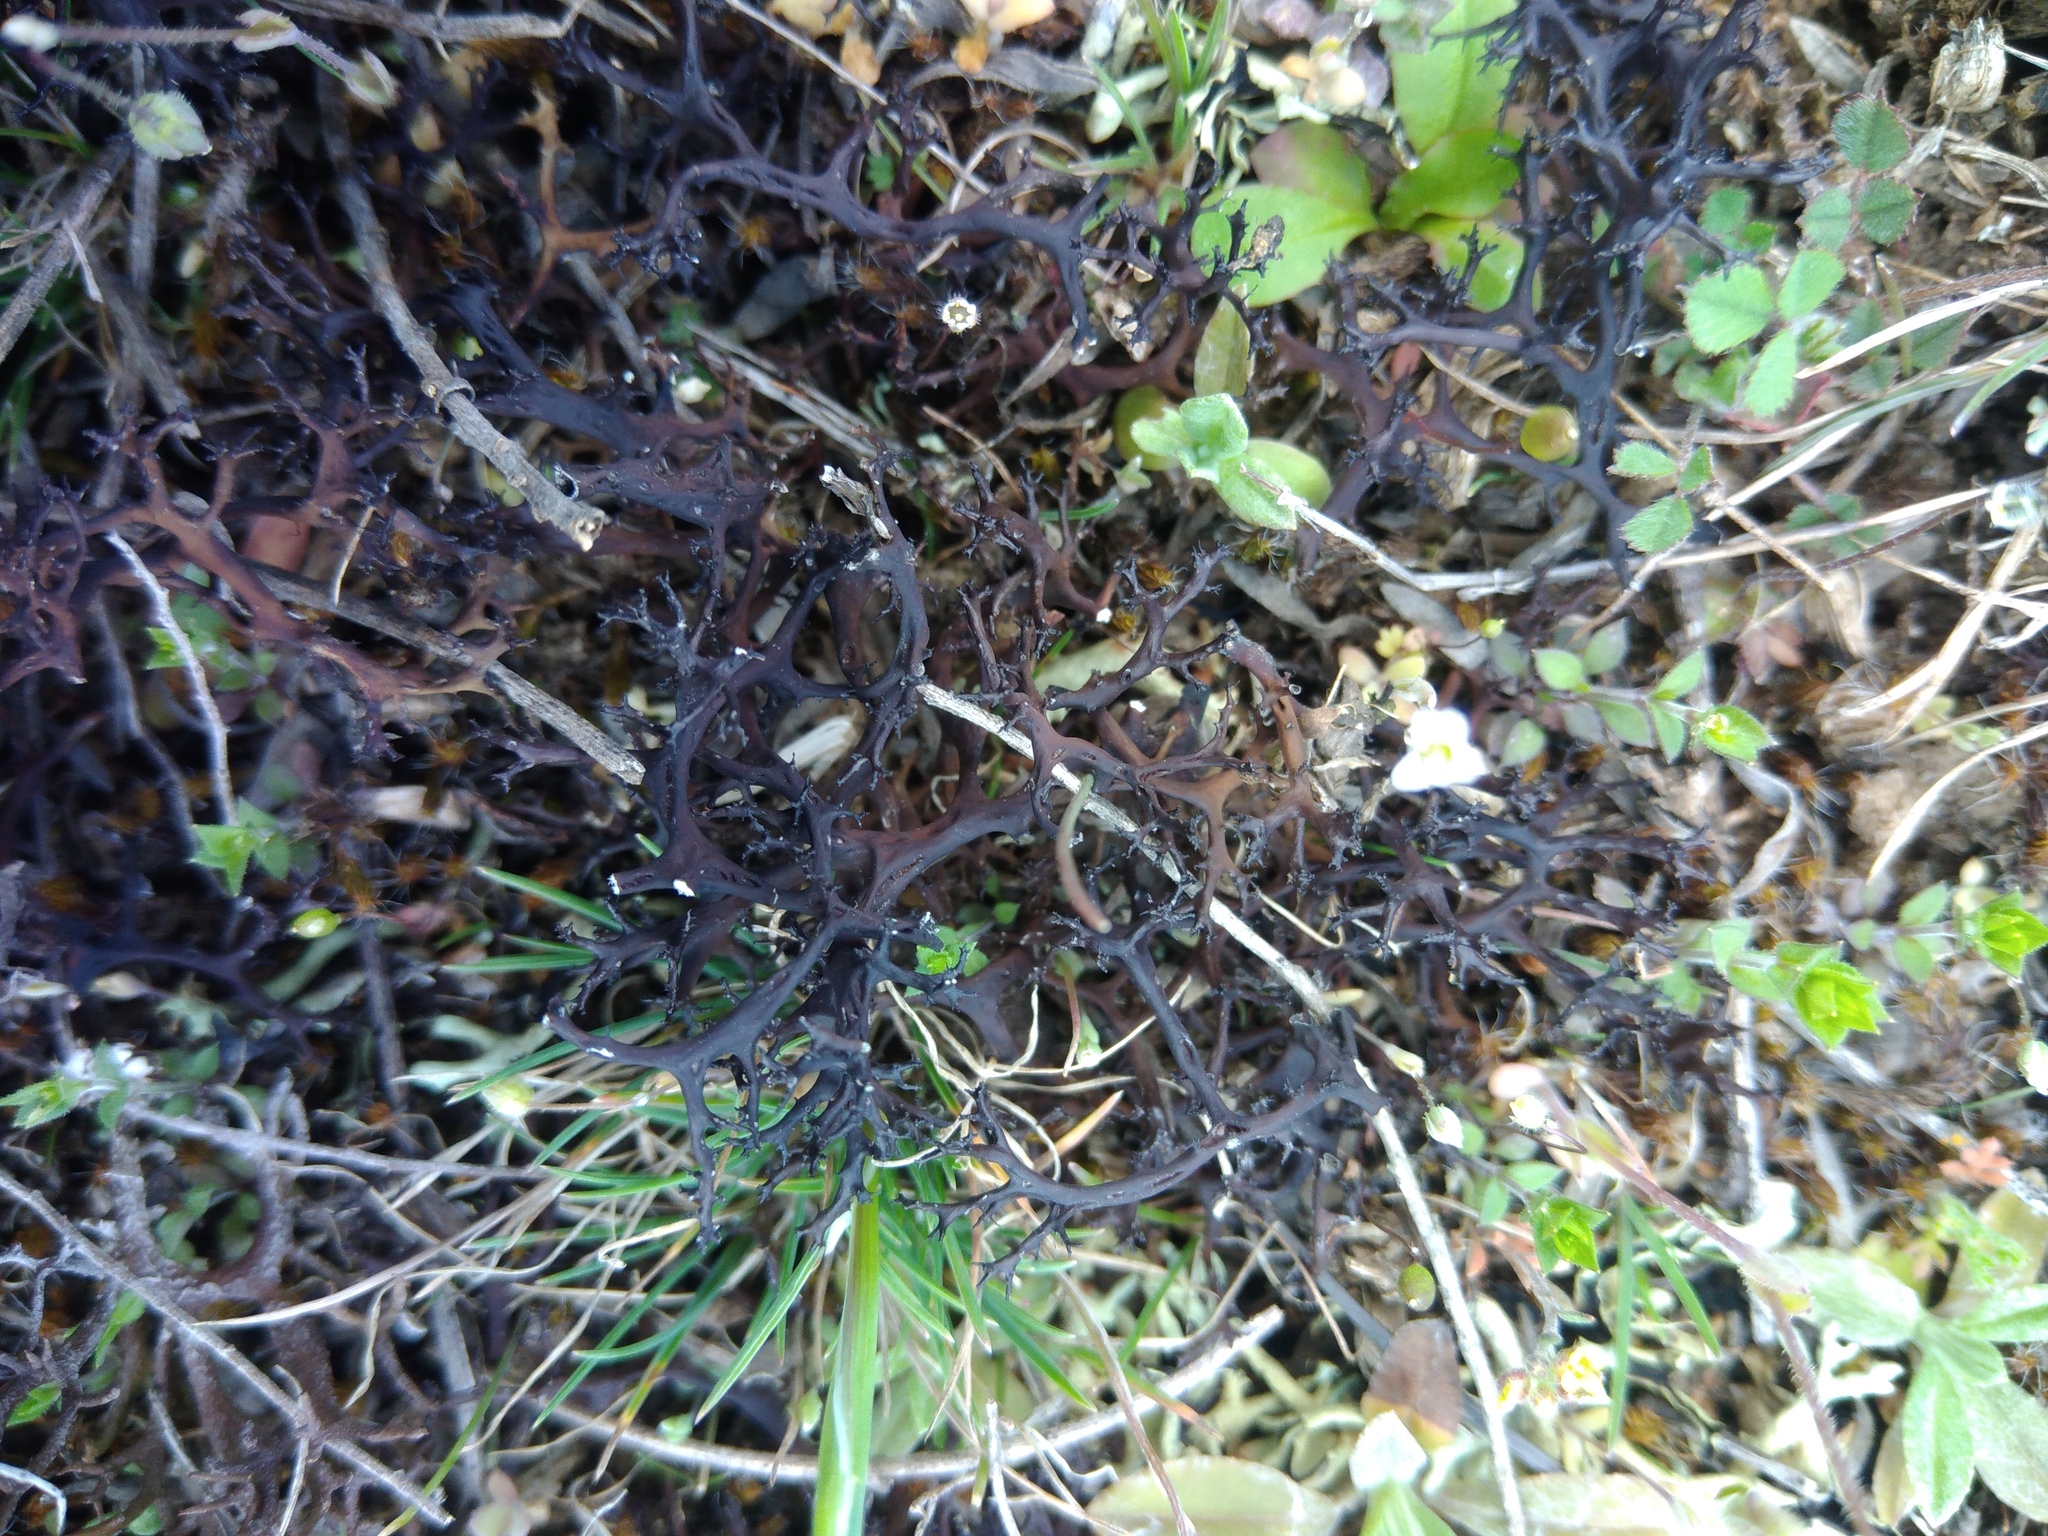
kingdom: Fungi
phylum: Ascomycota
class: Lecanoromycetes
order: Lecanorales
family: Parmeliaceae
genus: Cetraria
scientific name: Cetraria aculeata
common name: Spiny heath lichen
